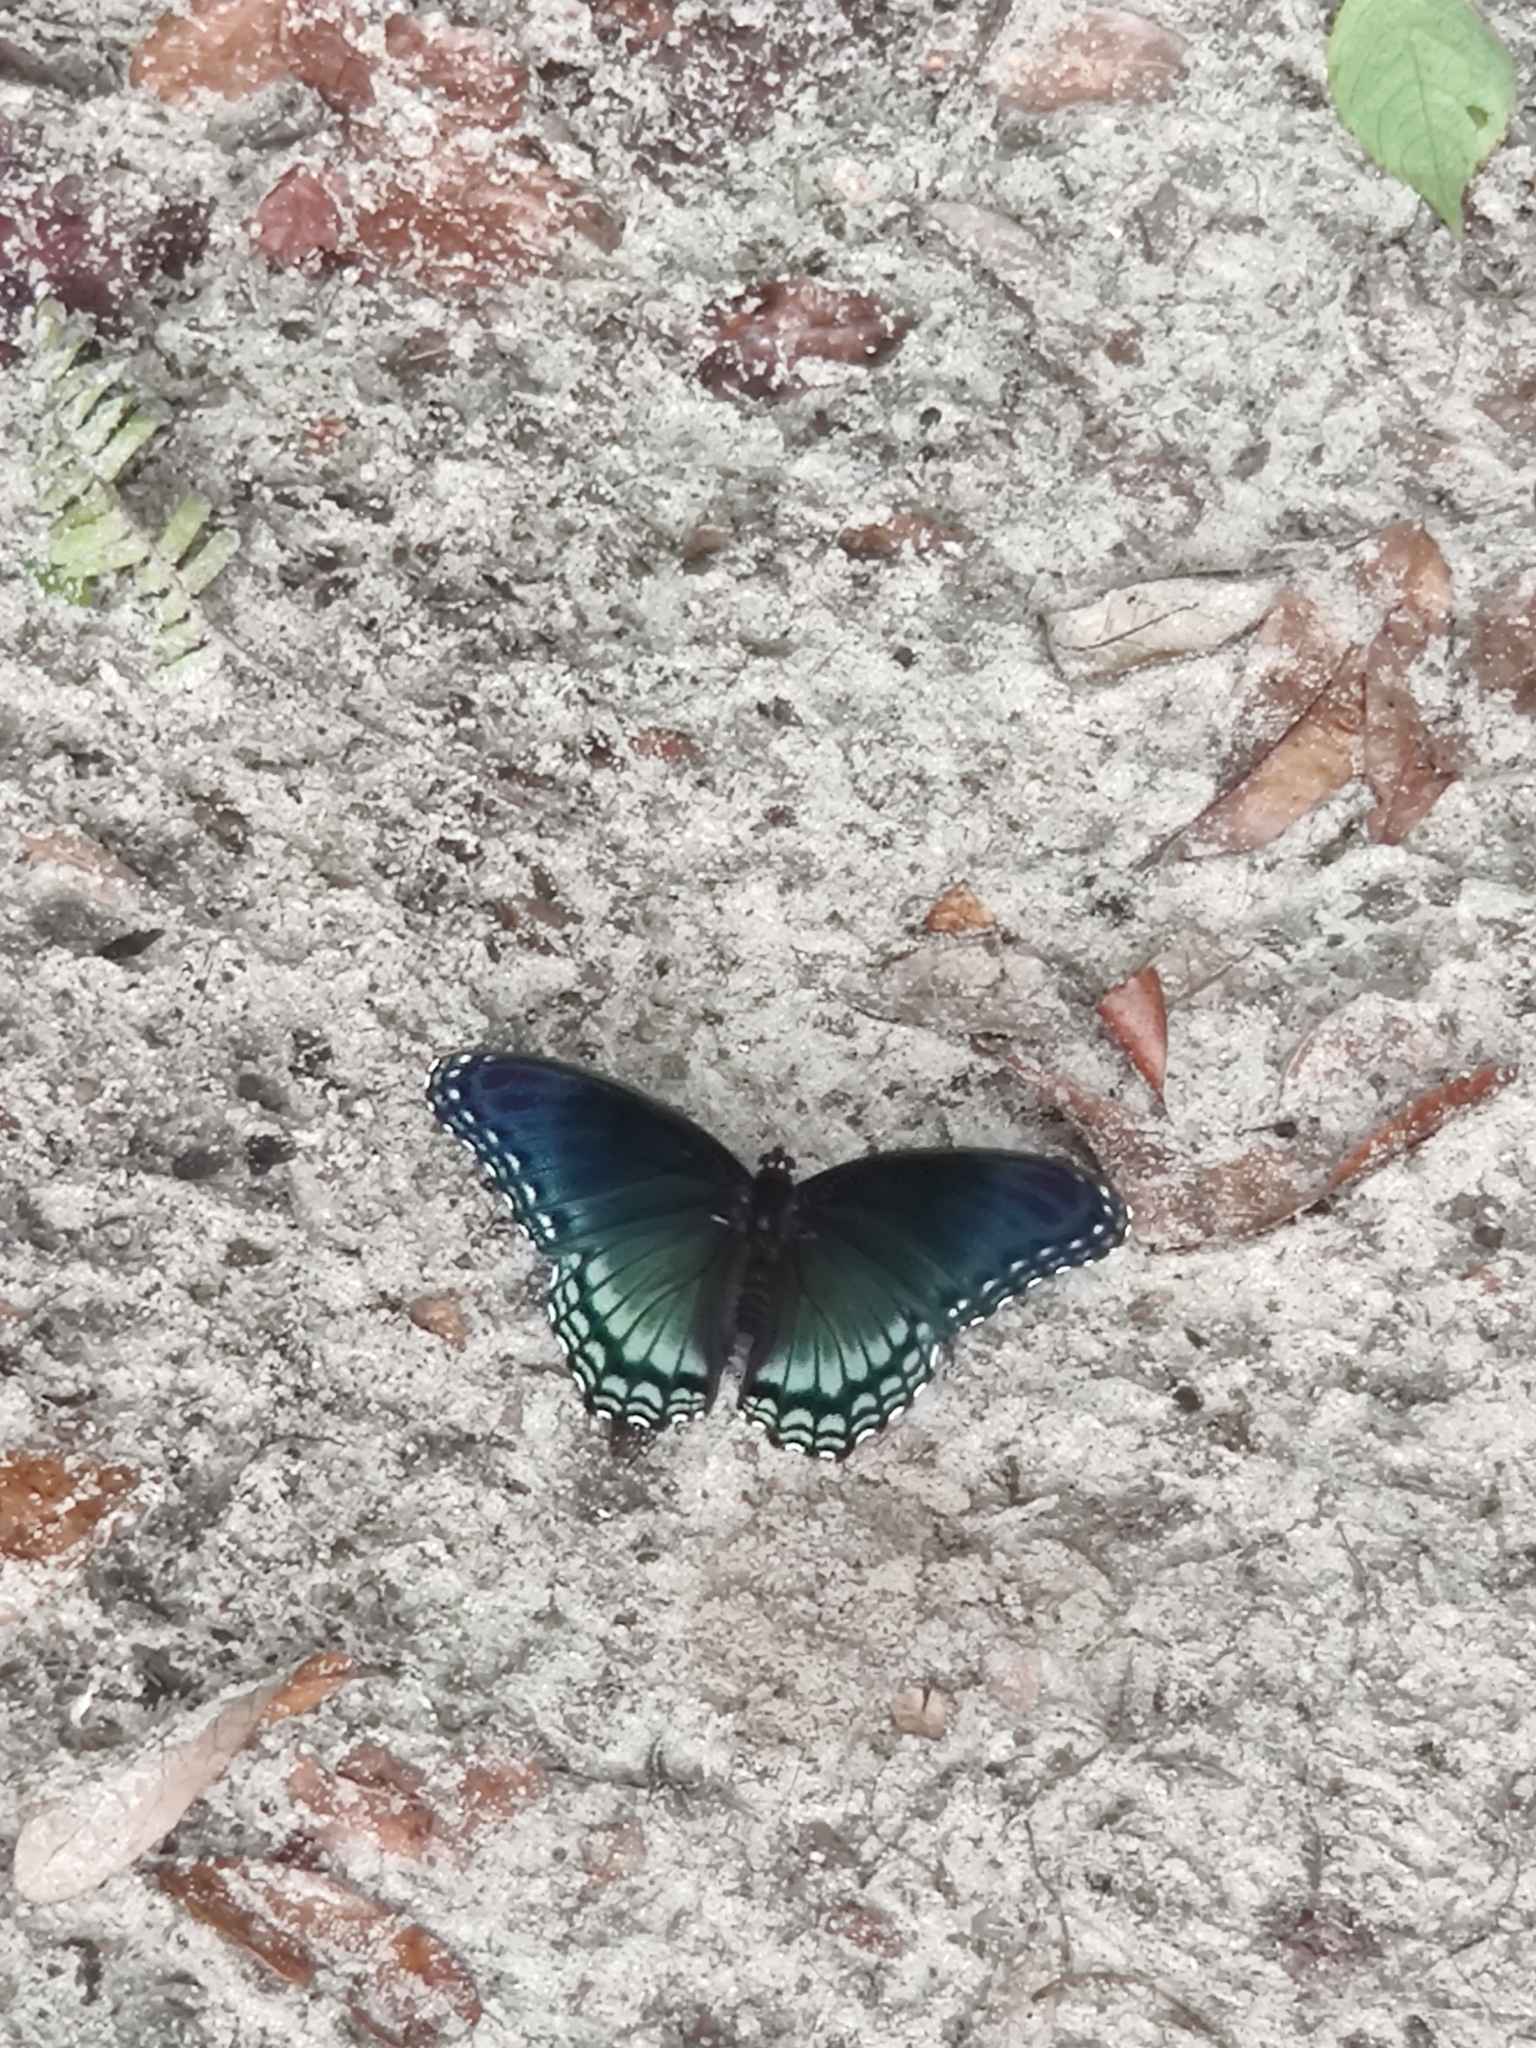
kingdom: Animalia
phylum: Arthropoda
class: Insecta
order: Lepidoptera
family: Nymphalidae
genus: Limenitis
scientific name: Limenitis arthemis
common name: Red-spotted admiral
